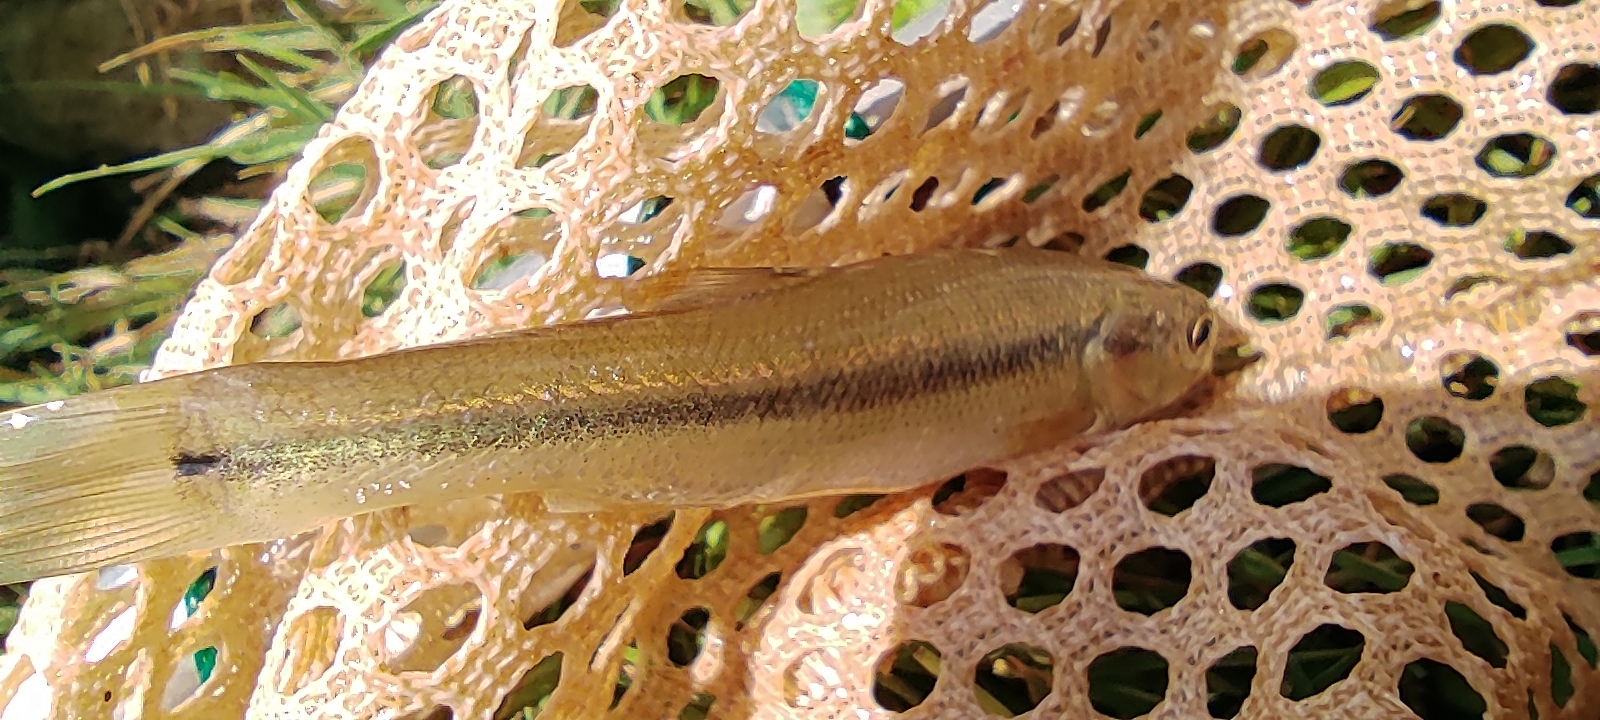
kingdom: Animalia
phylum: Chordata
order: Cypriniformes
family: Cyprinidae
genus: Semotilus
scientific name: Semotilus atromaculatus
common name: Creek chub
